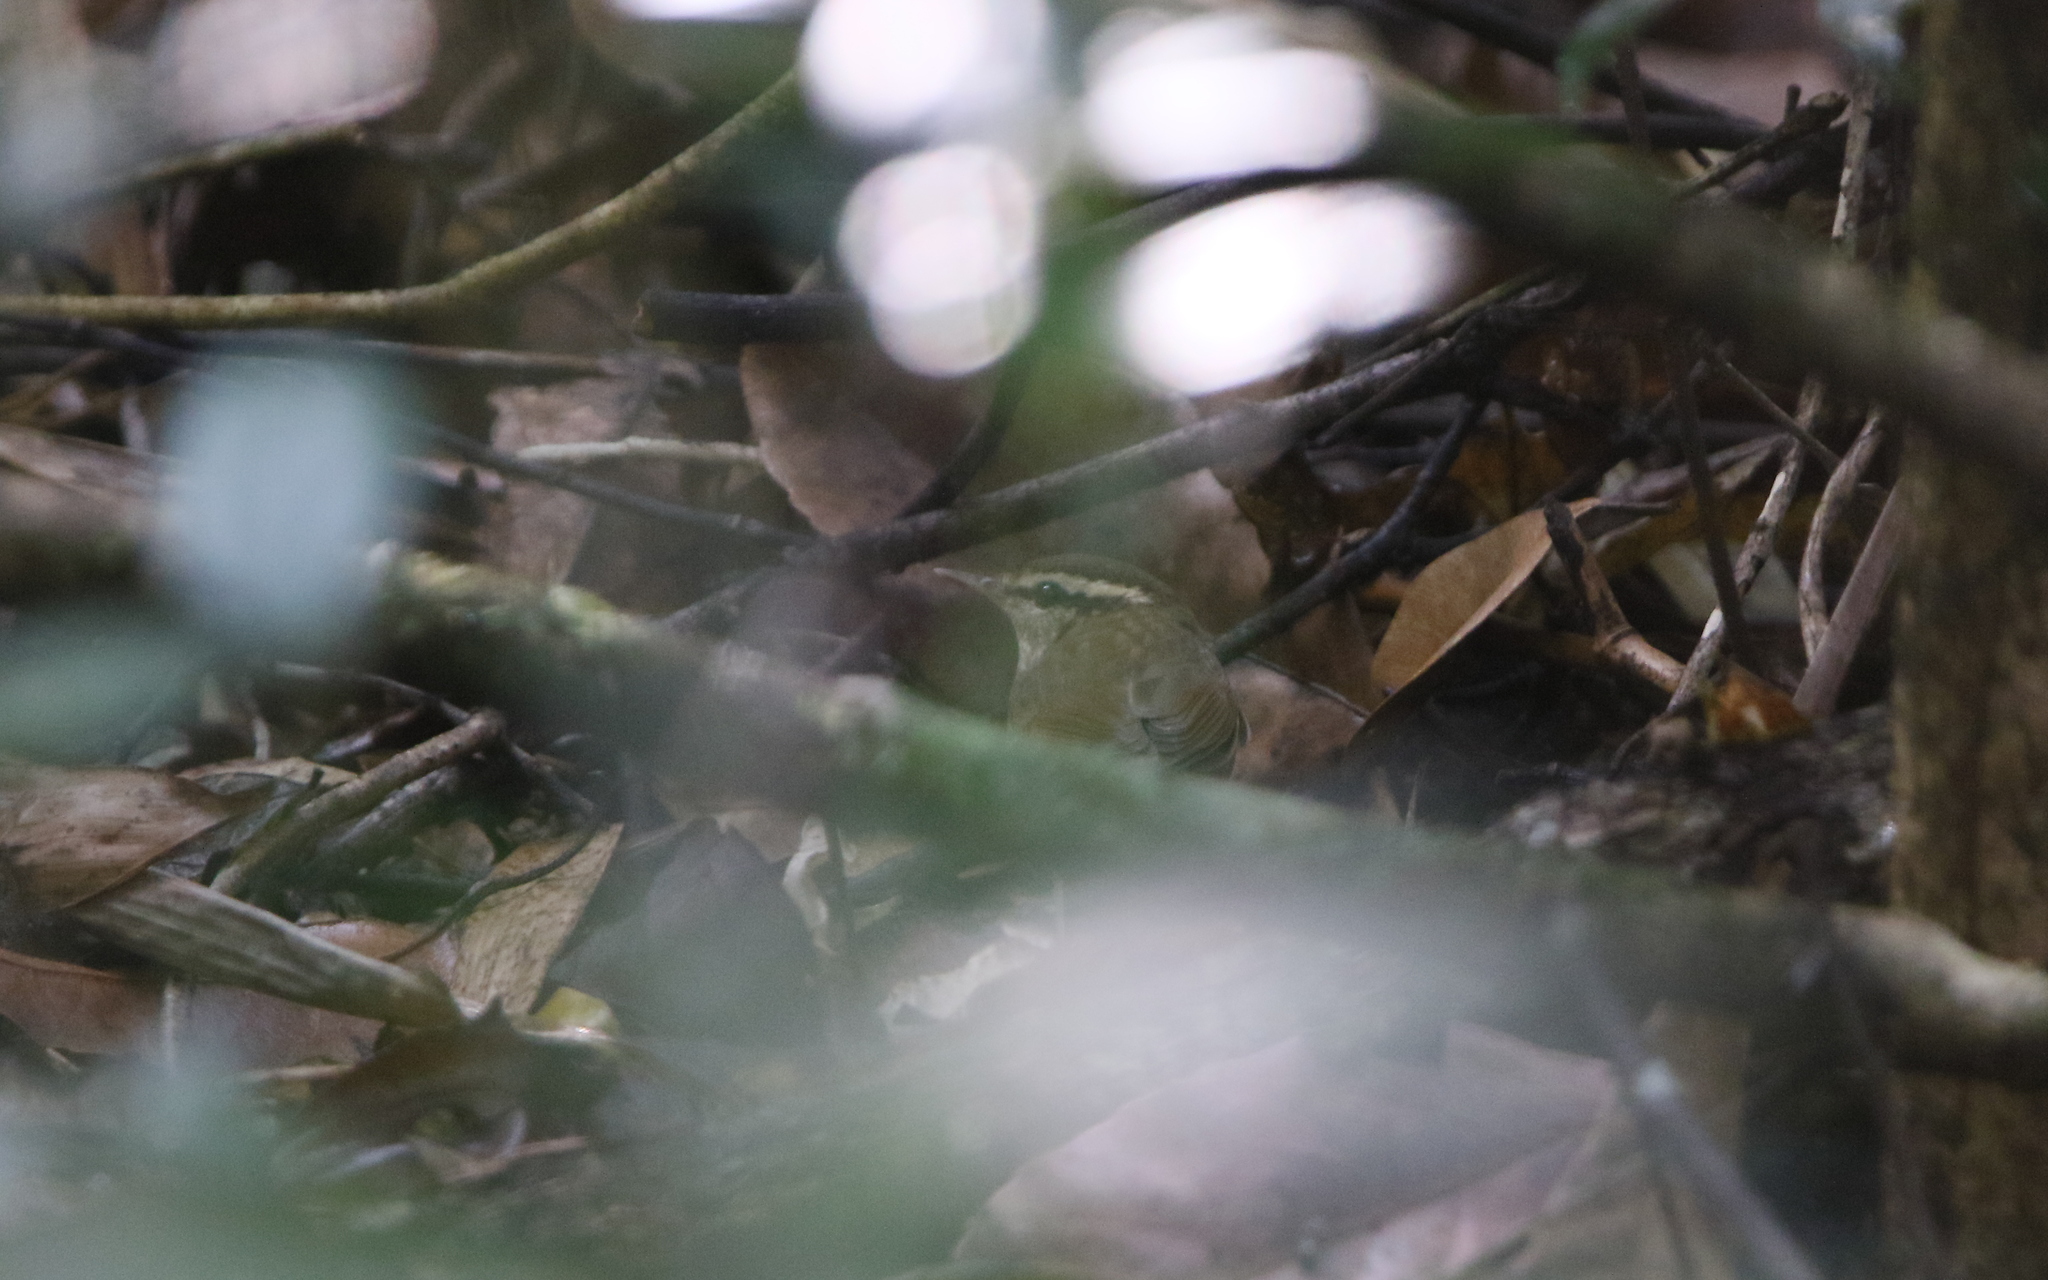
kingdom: Animalia
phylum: Chordata
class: Aves
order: Passeriformes
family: Cettiidae
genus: Urosphena
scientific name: Urosphena squameiceps
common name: Asian stubtail
